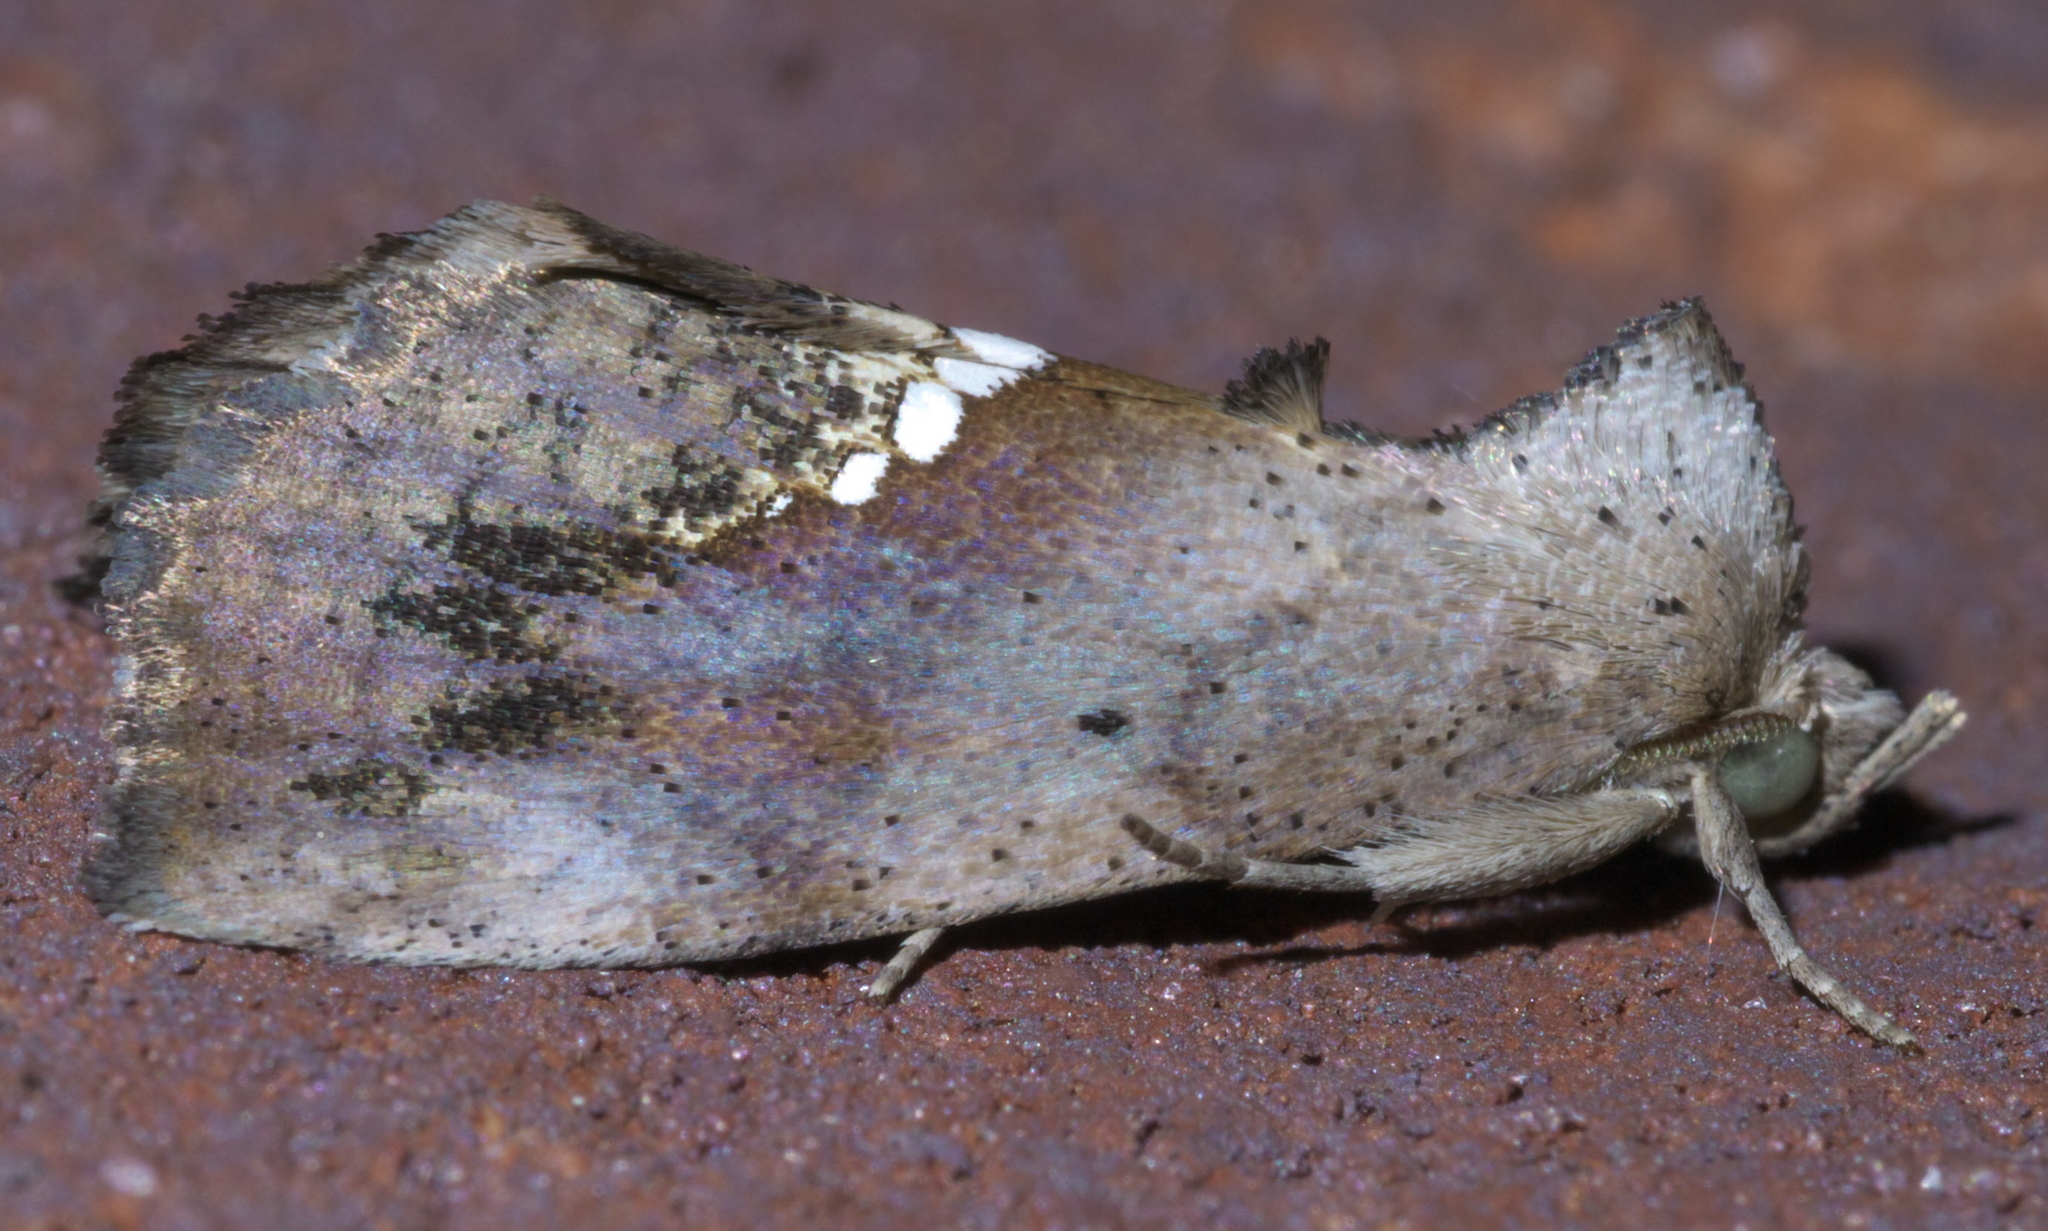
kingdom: Animalia
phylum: Arthropoda
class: Insecta
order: Lepidoptera
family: Erebidae
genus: Hypsoropha
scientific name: Hypsoropha hormos
